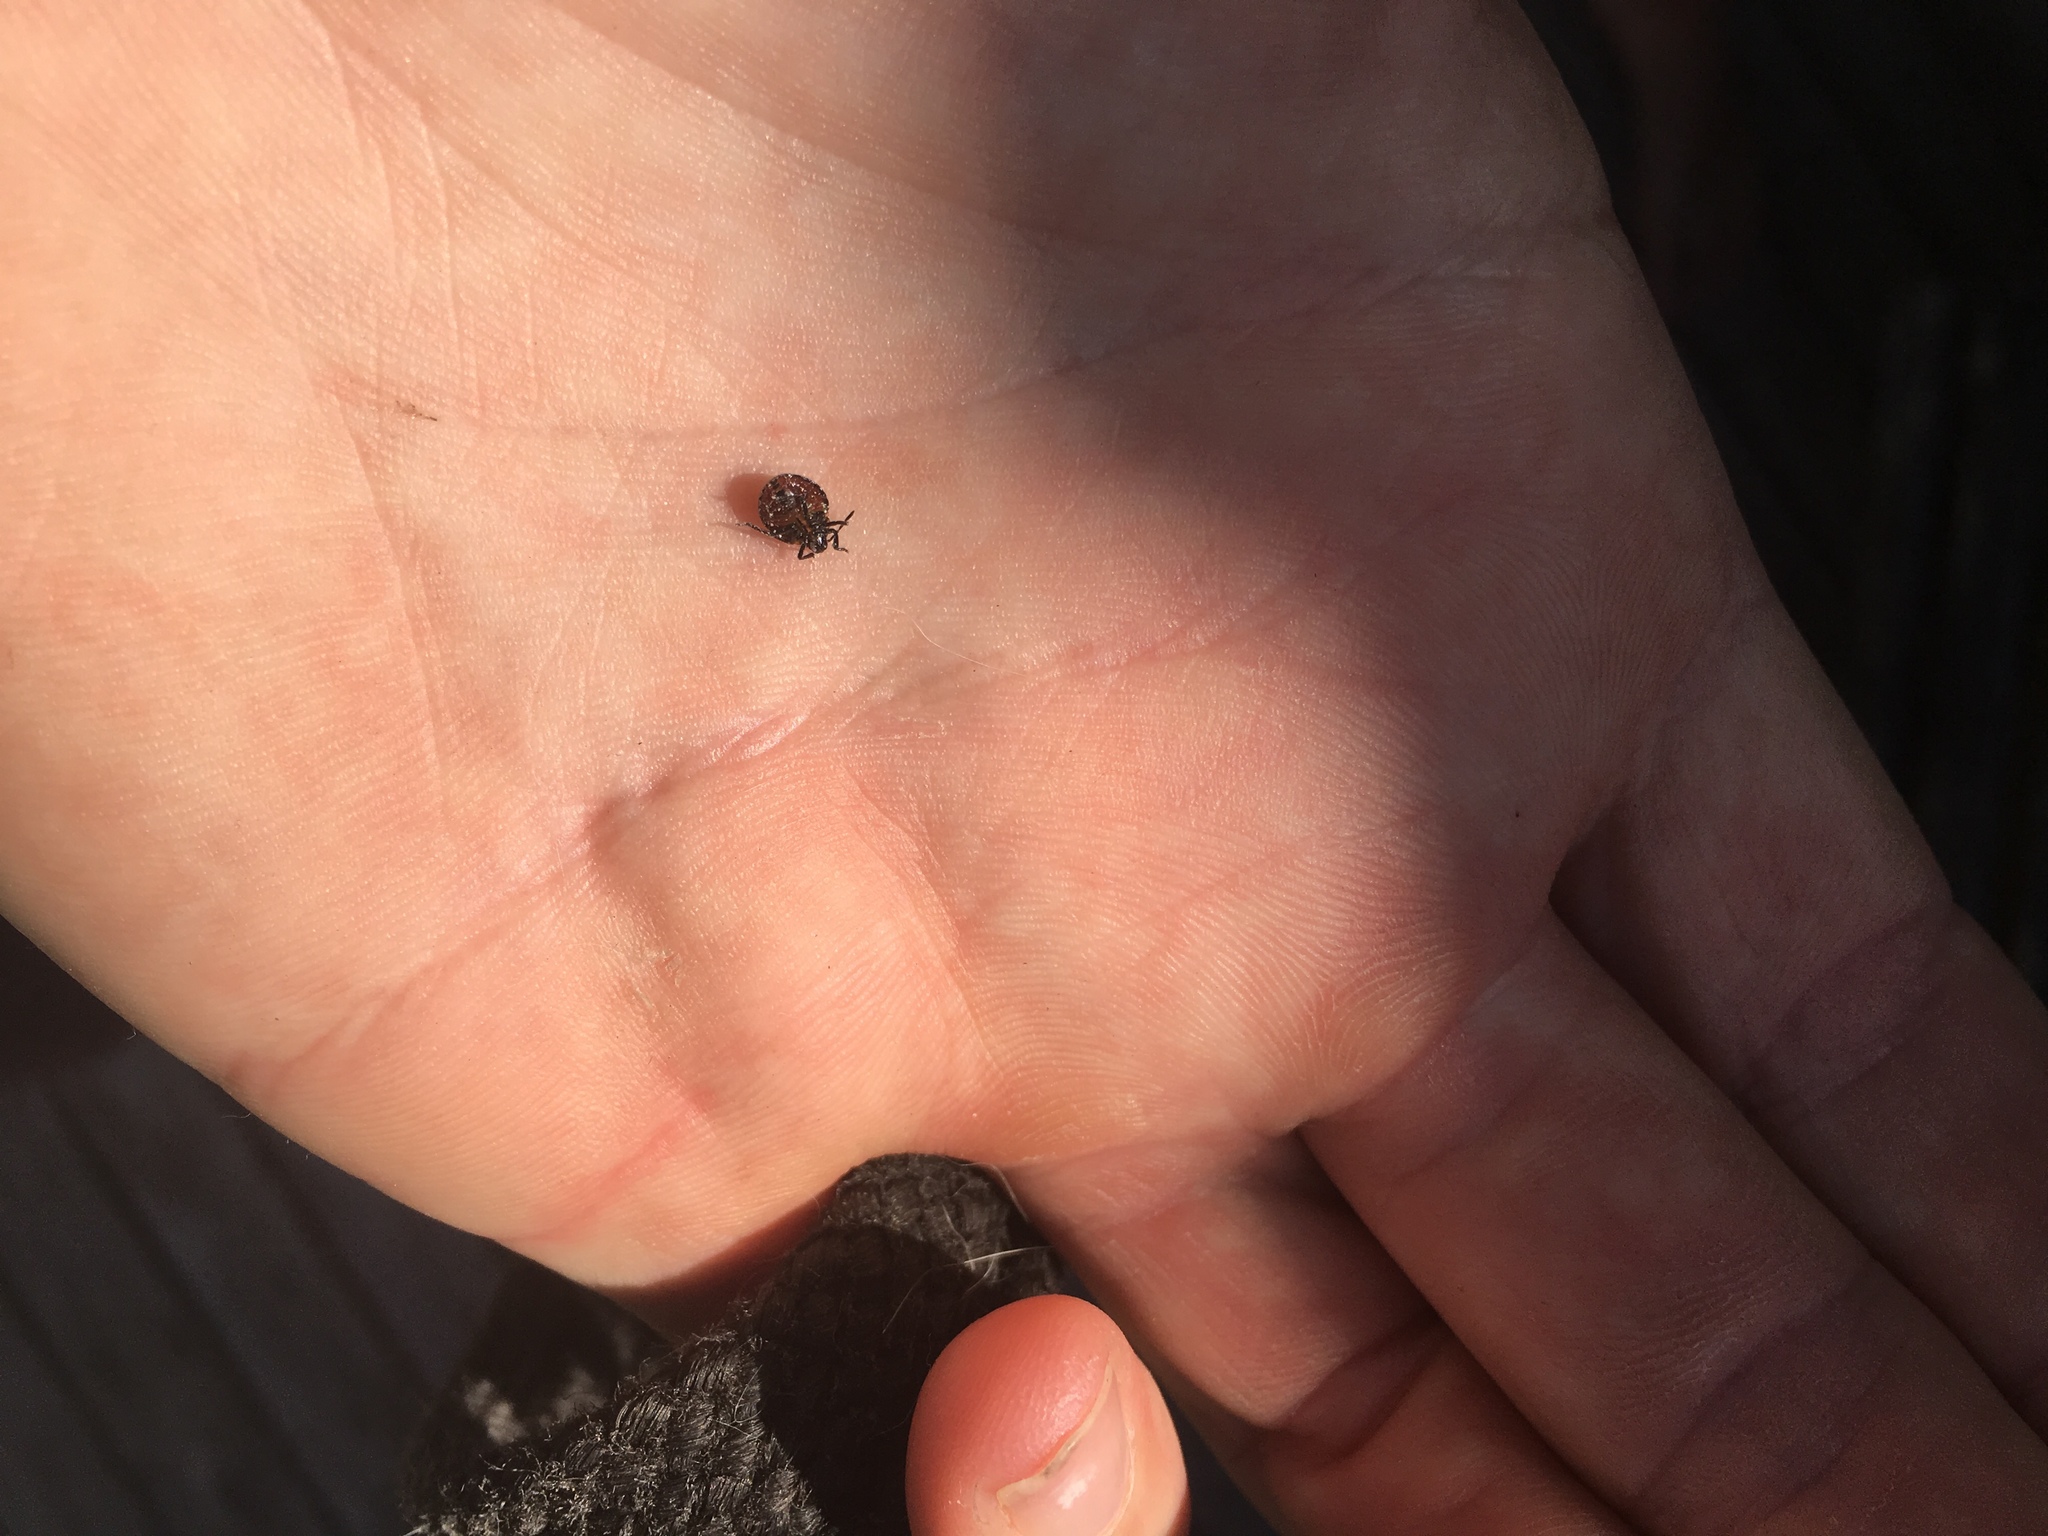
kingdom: Animalia
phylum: Arthropoda
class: Insecta
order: Hemiptera
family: Pentatomidae
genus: Nezara
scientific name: Nezara viridula
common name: Southern green stink bug
